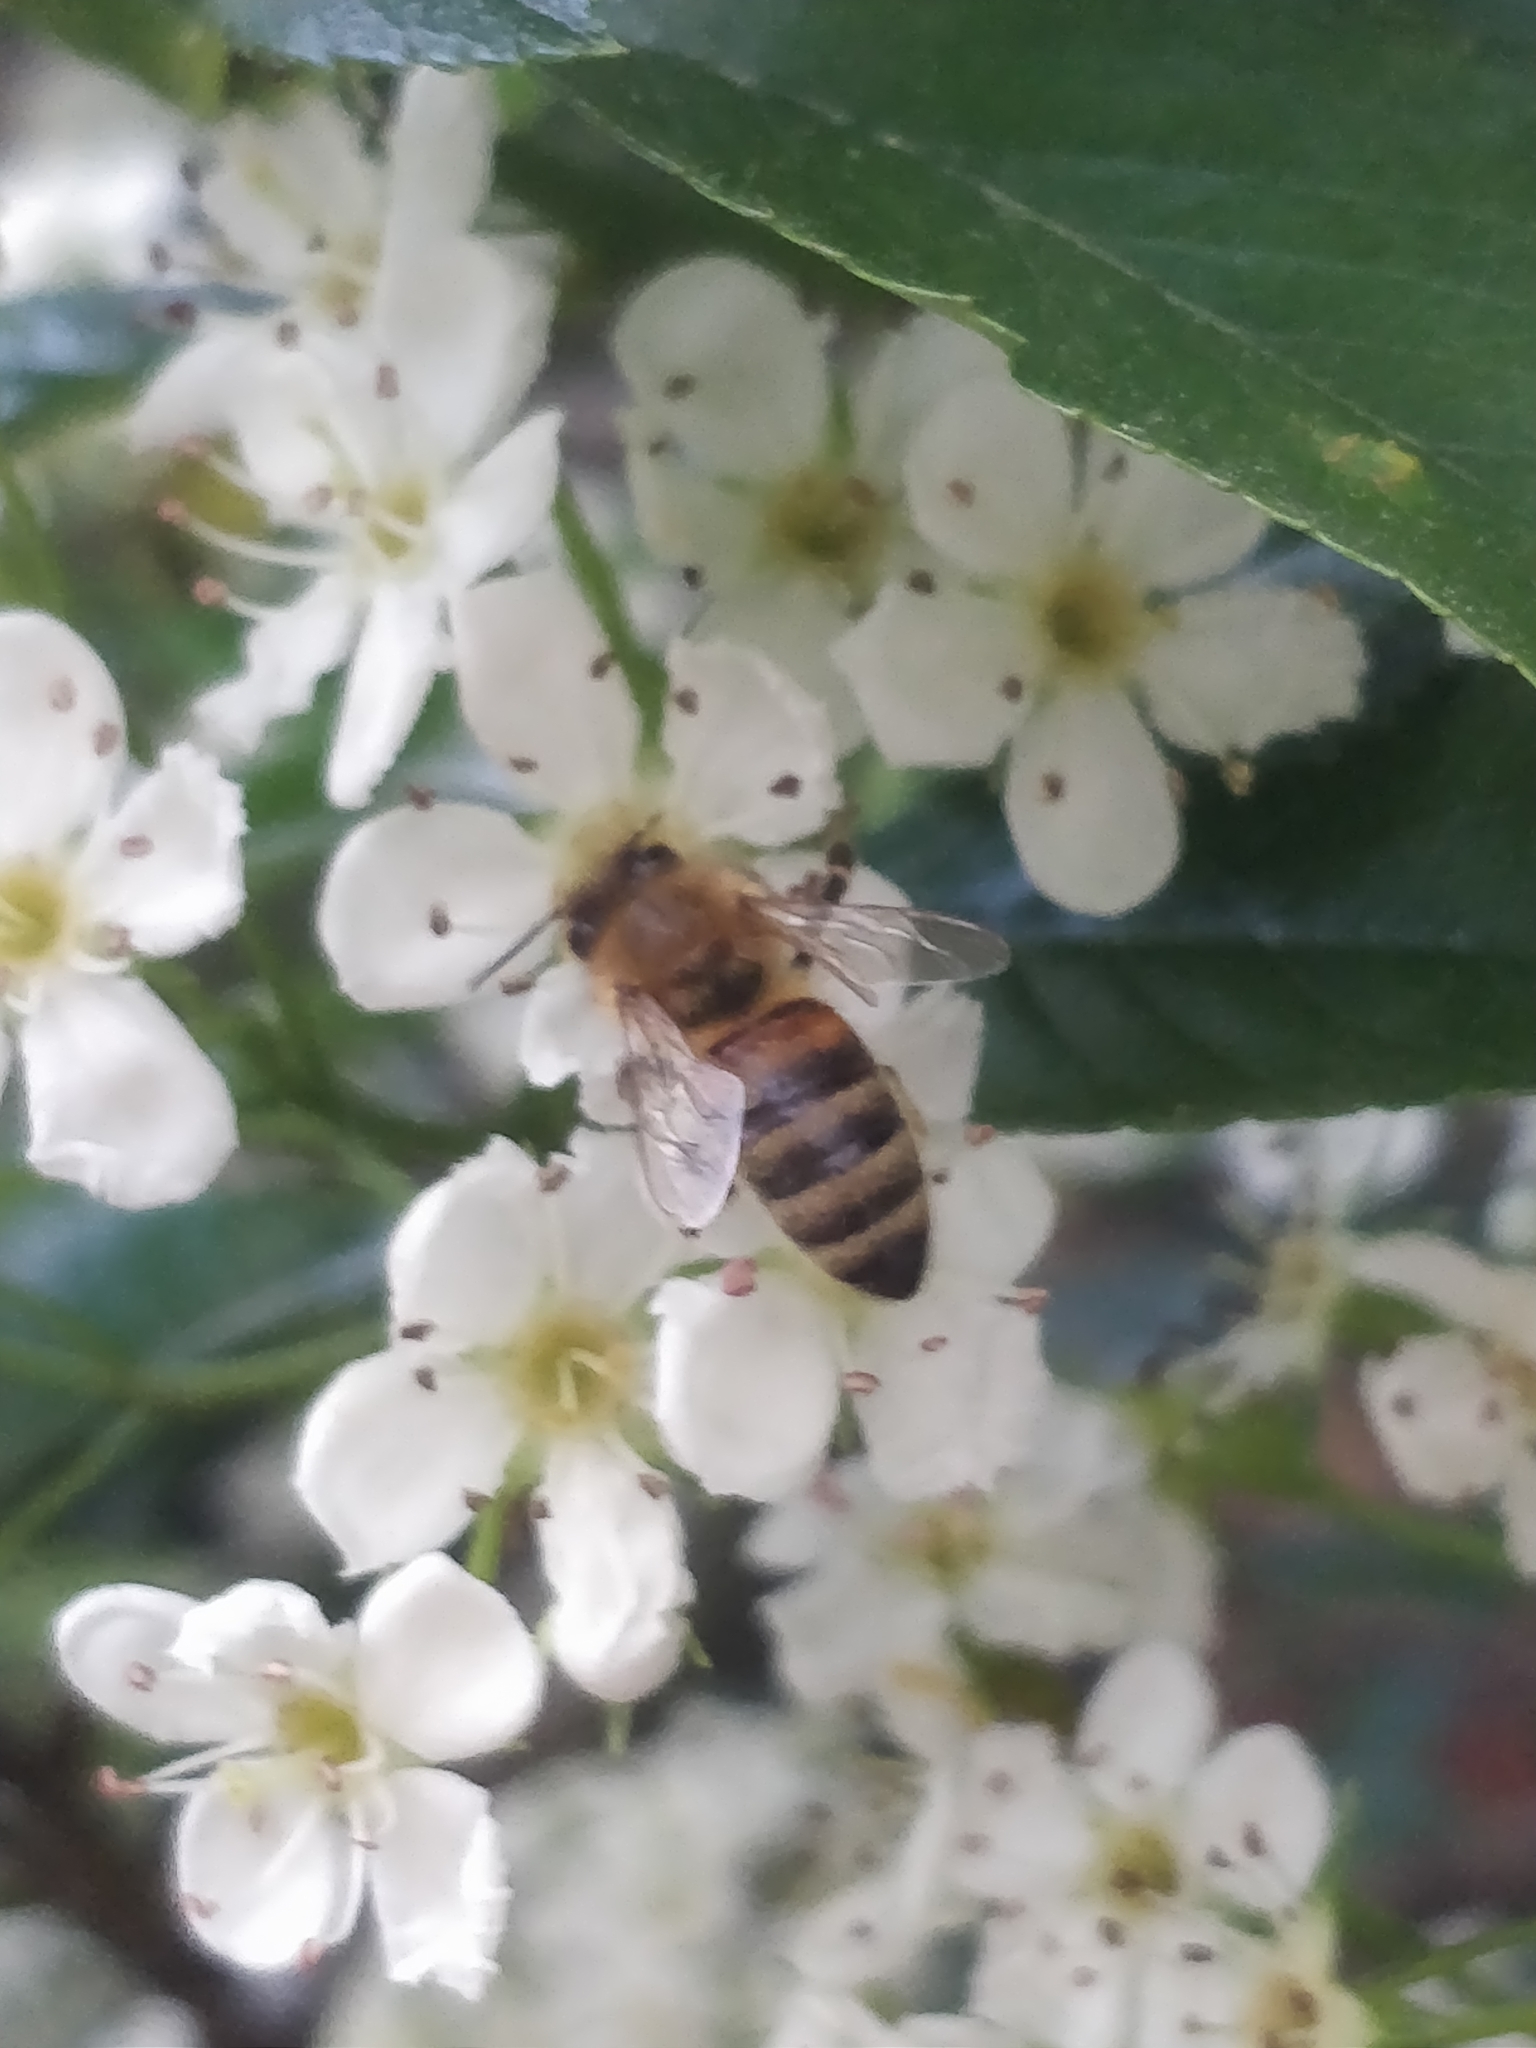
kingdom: Animalia
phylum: Arthropoda
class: Insecta
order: Hymenoptera
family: Apidae
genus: Apis
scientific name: Apis mellifera
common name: Honey bee
